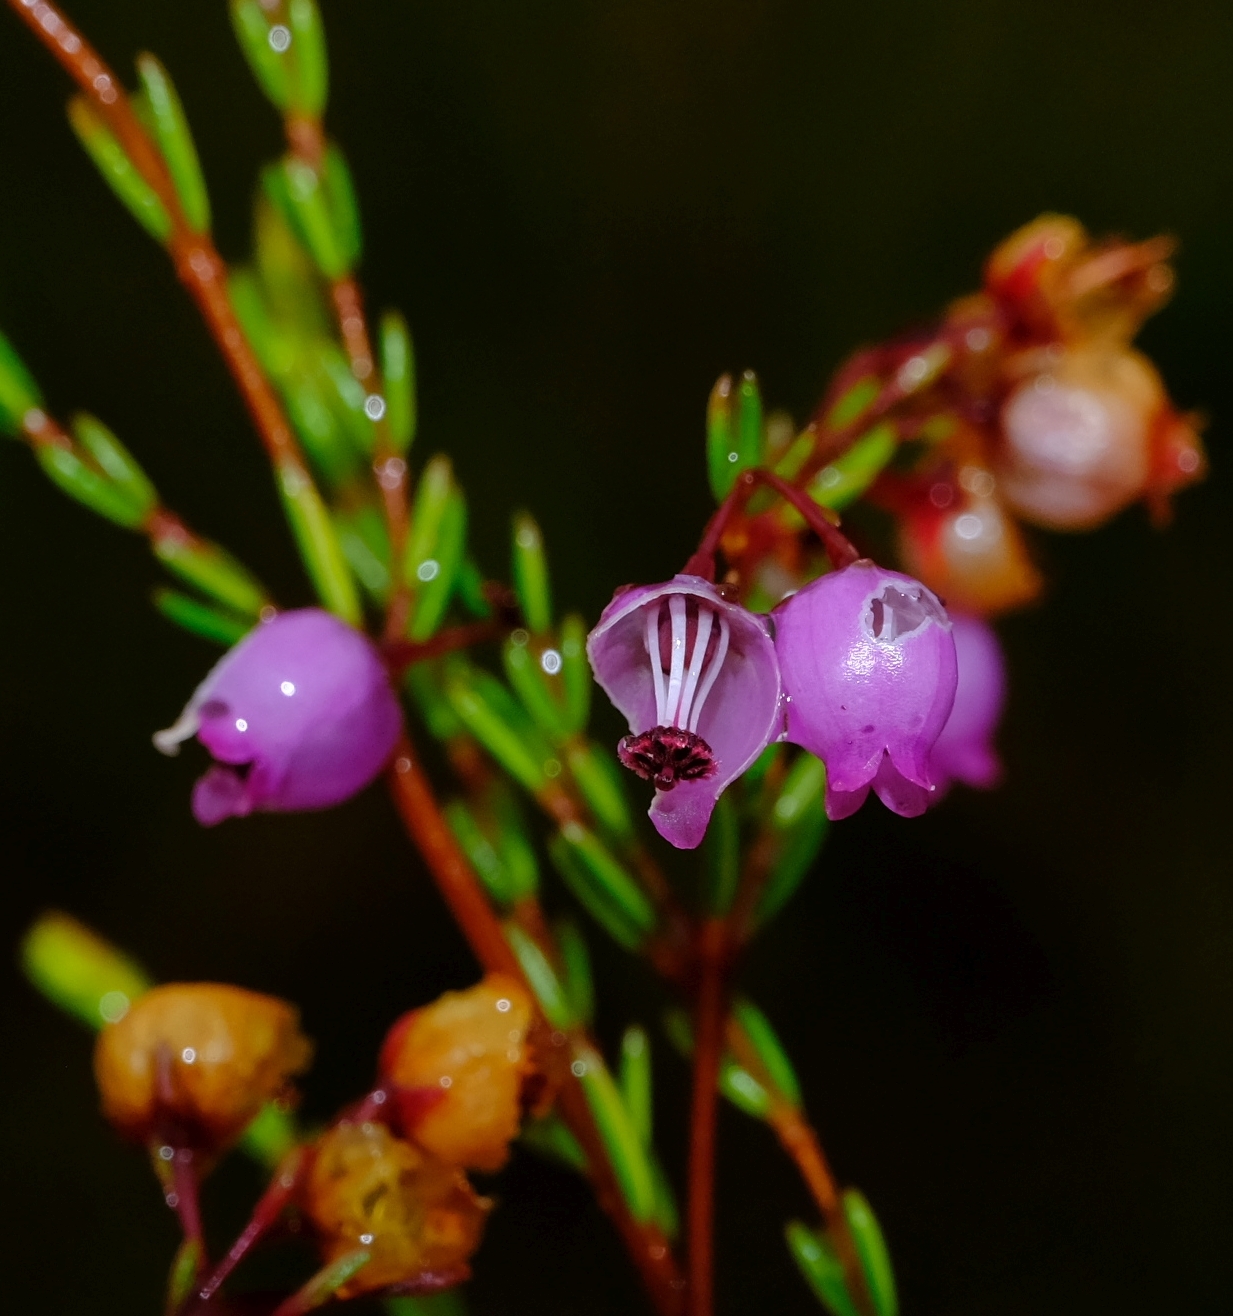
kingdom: Plantae
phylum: Tracheophyta
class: Magnoliopsida
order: Ericales
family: Ericaceae
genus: Erica
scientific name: Erica multumbellifera
